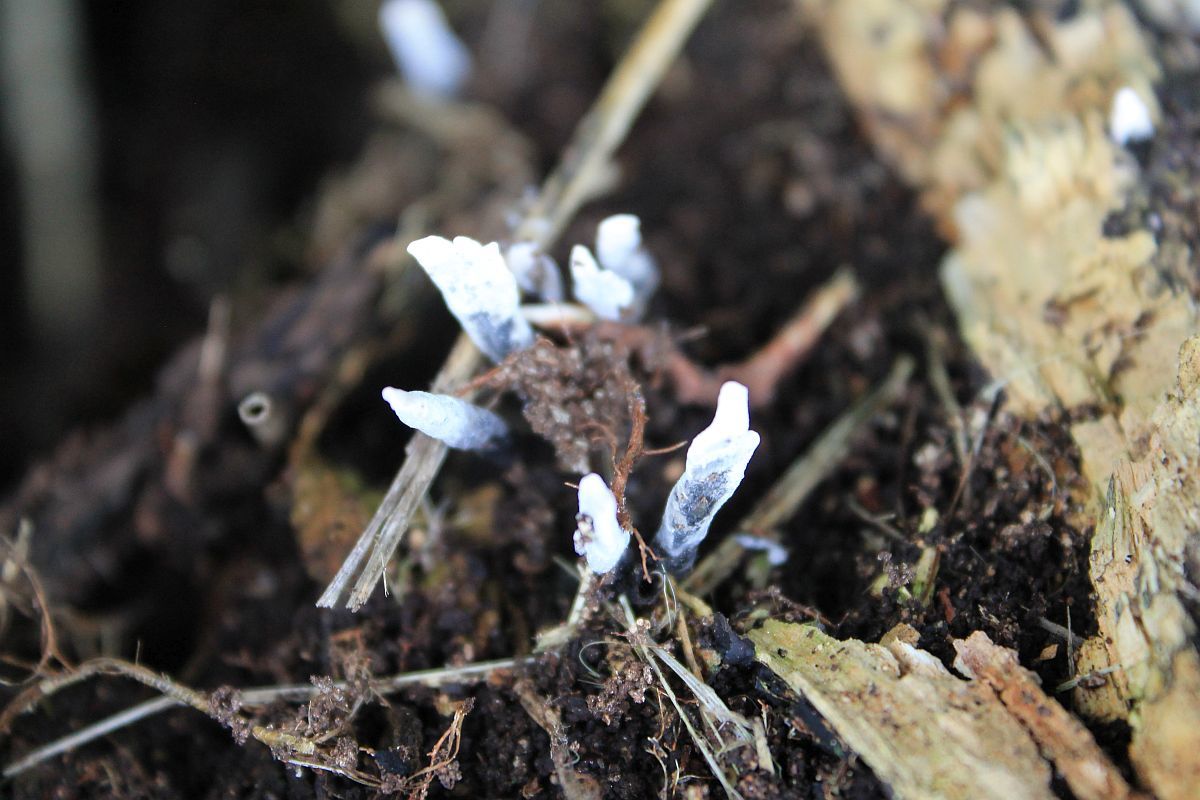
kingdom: Fungi
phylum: Ascomycota
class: Sordariomycetes
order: Xylariales
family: Xylariaceae
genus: Xylaria
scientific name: Xylaria hypoxylon
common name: Candle-snuff fungus
